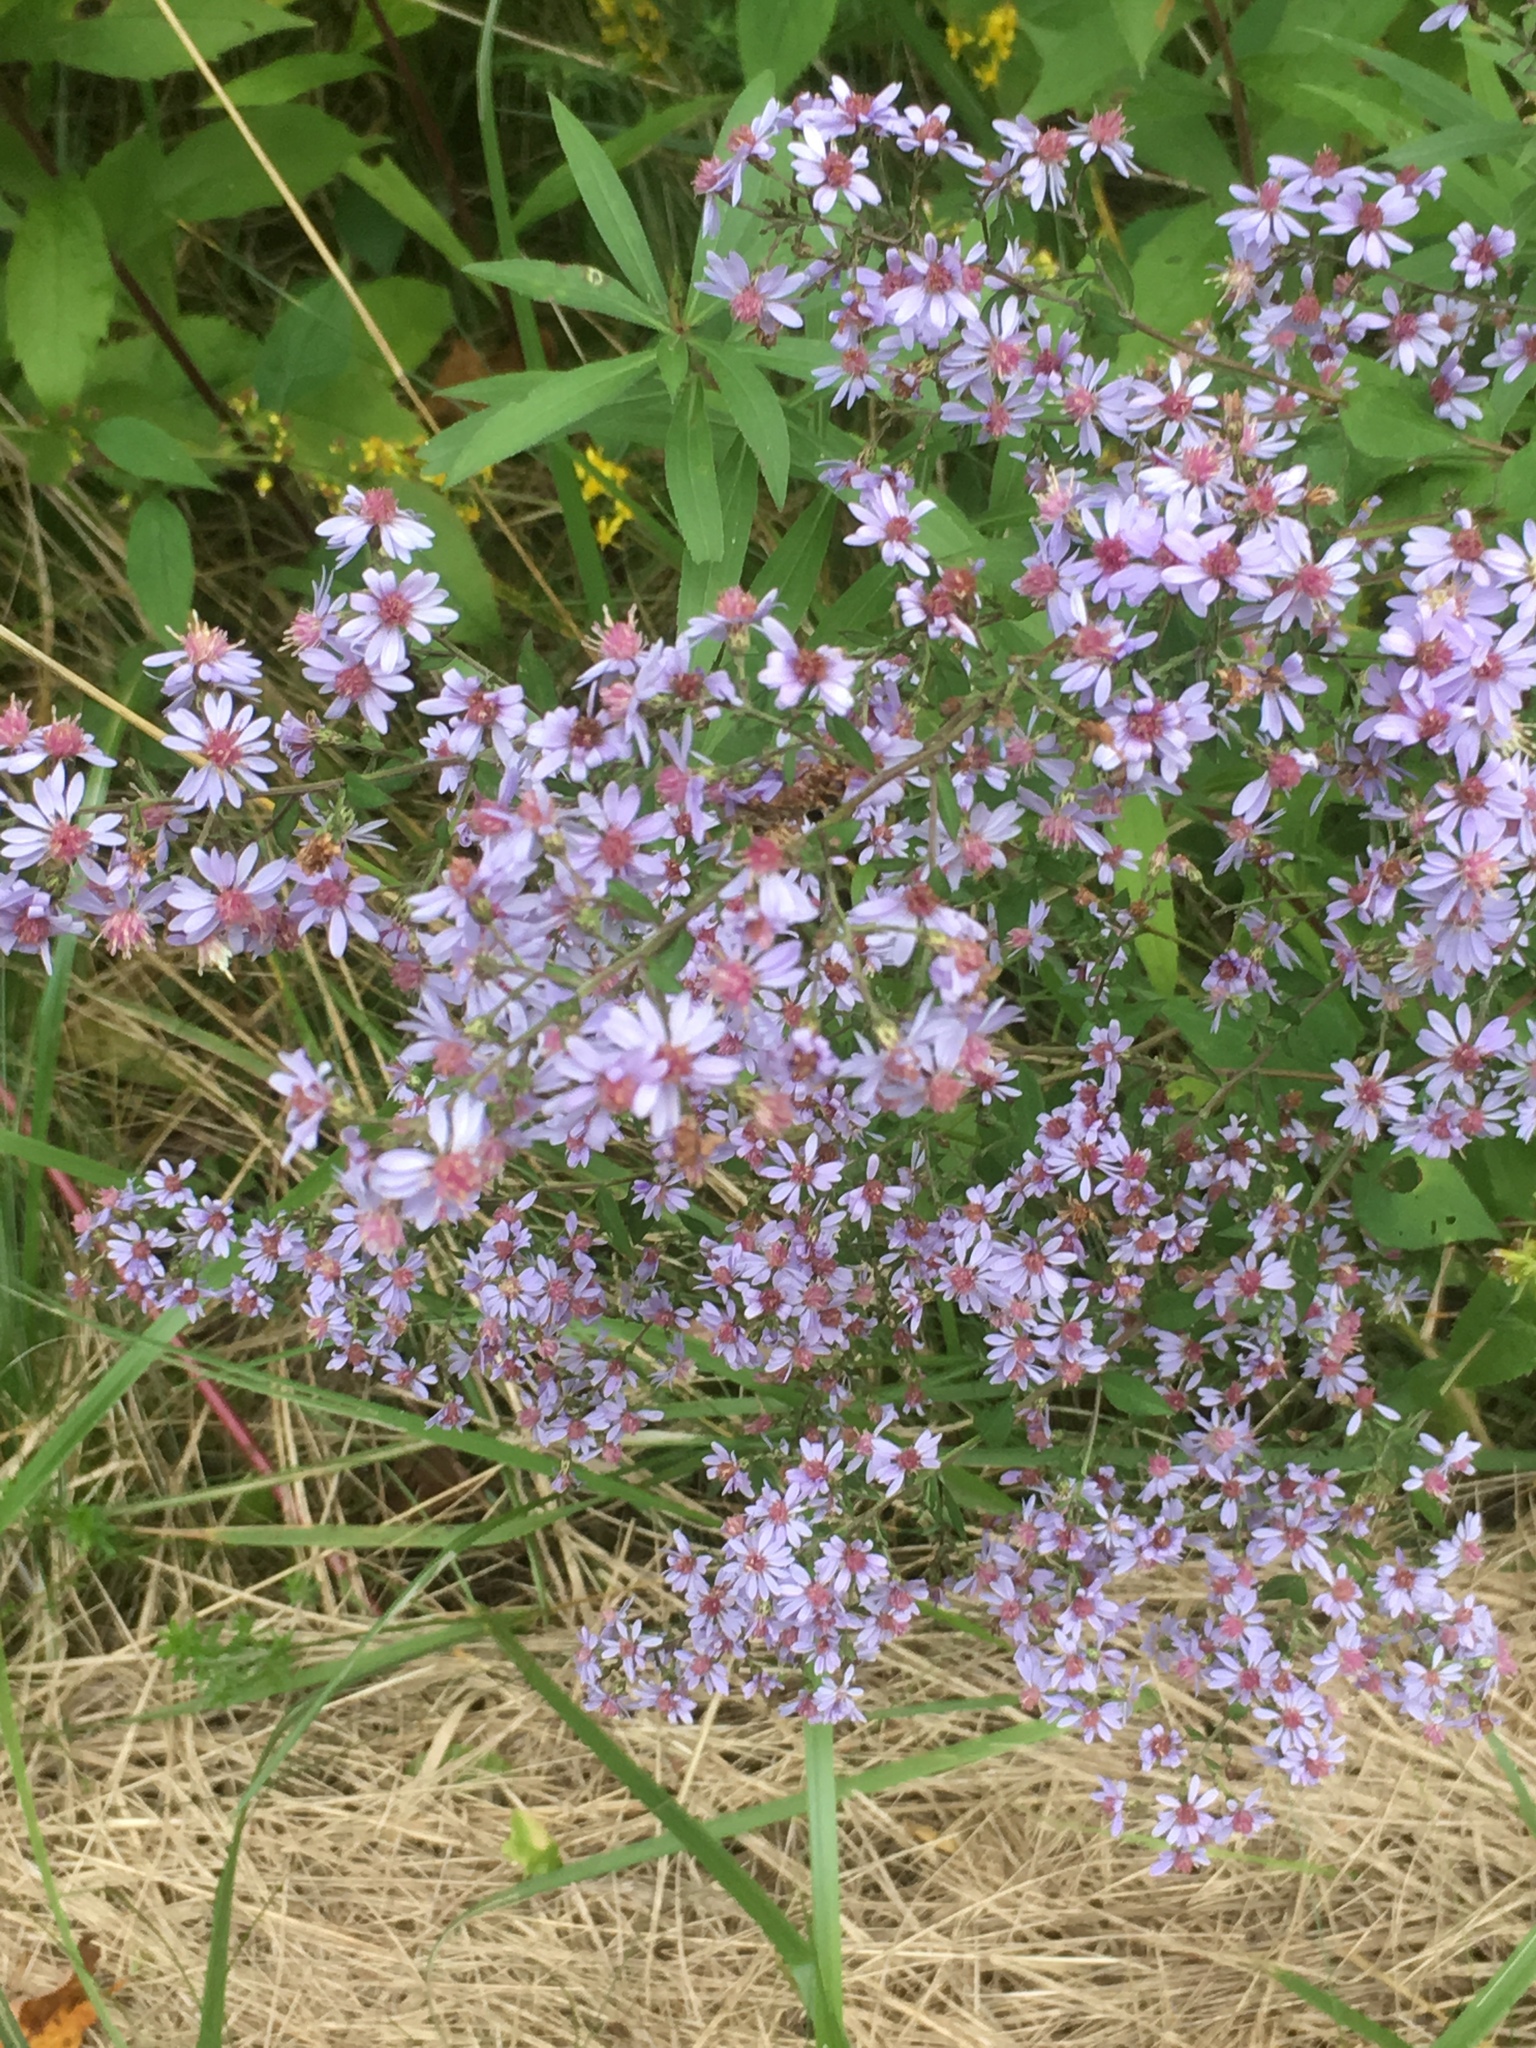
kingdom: Plantae
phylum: Tracheophyta
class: Magnoliopsida
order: Asterales
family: Asteraceae
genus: Symphyotrichum
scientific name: Symphyotrichum cordifolium
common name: Beeweed
